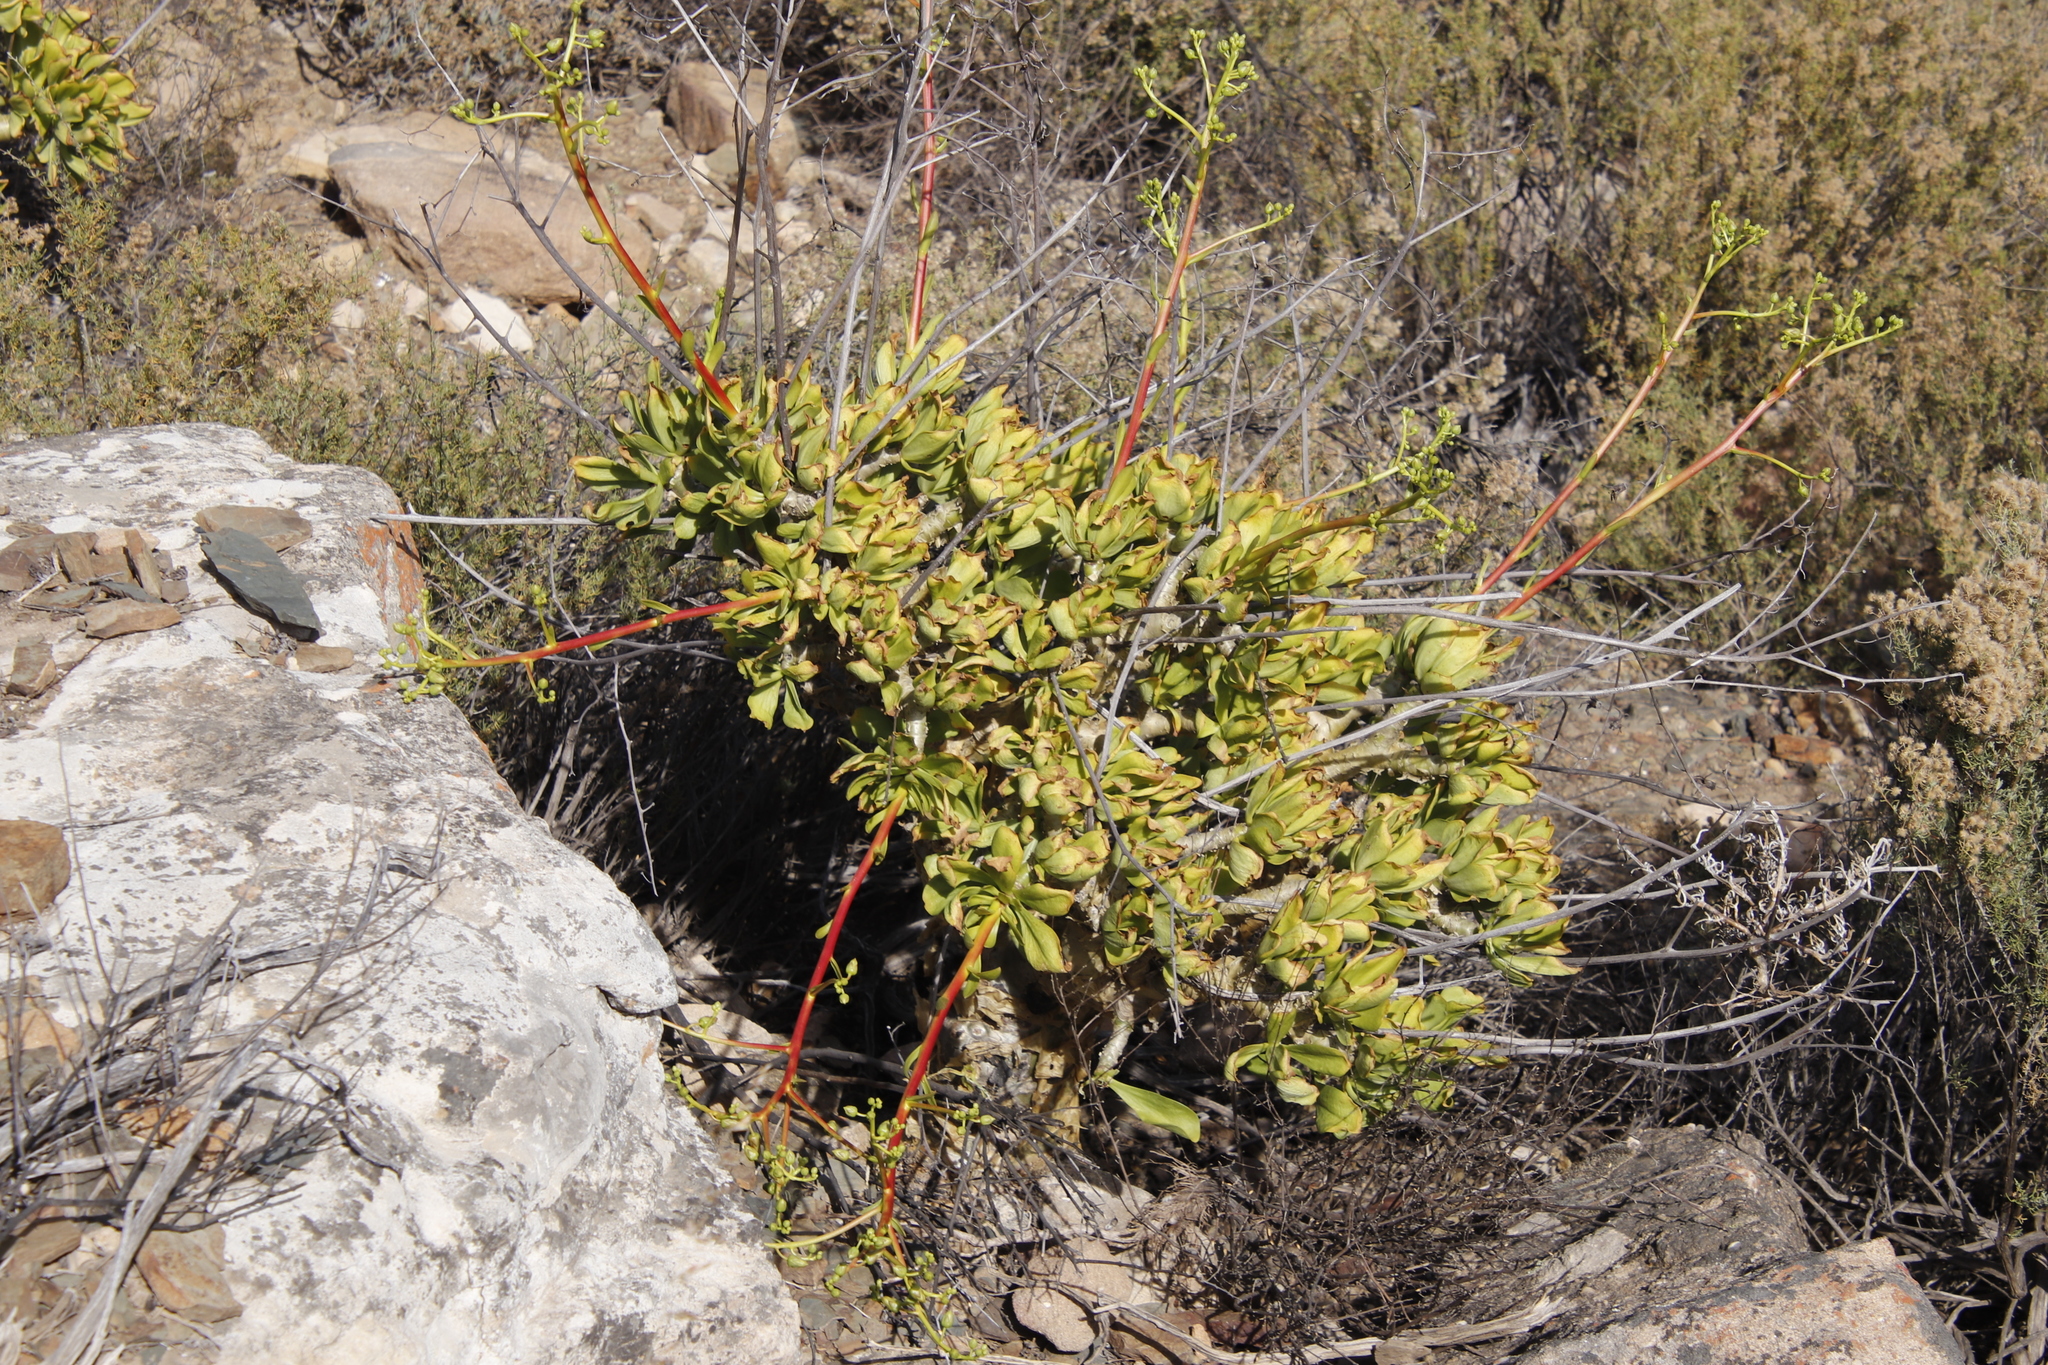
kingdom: Plantae
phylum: Tracheophyta
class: Magnoliopsida
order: Saxifragales
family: Crassulaceae
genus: Tylecodon
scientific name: Tylecodon paniculatus
